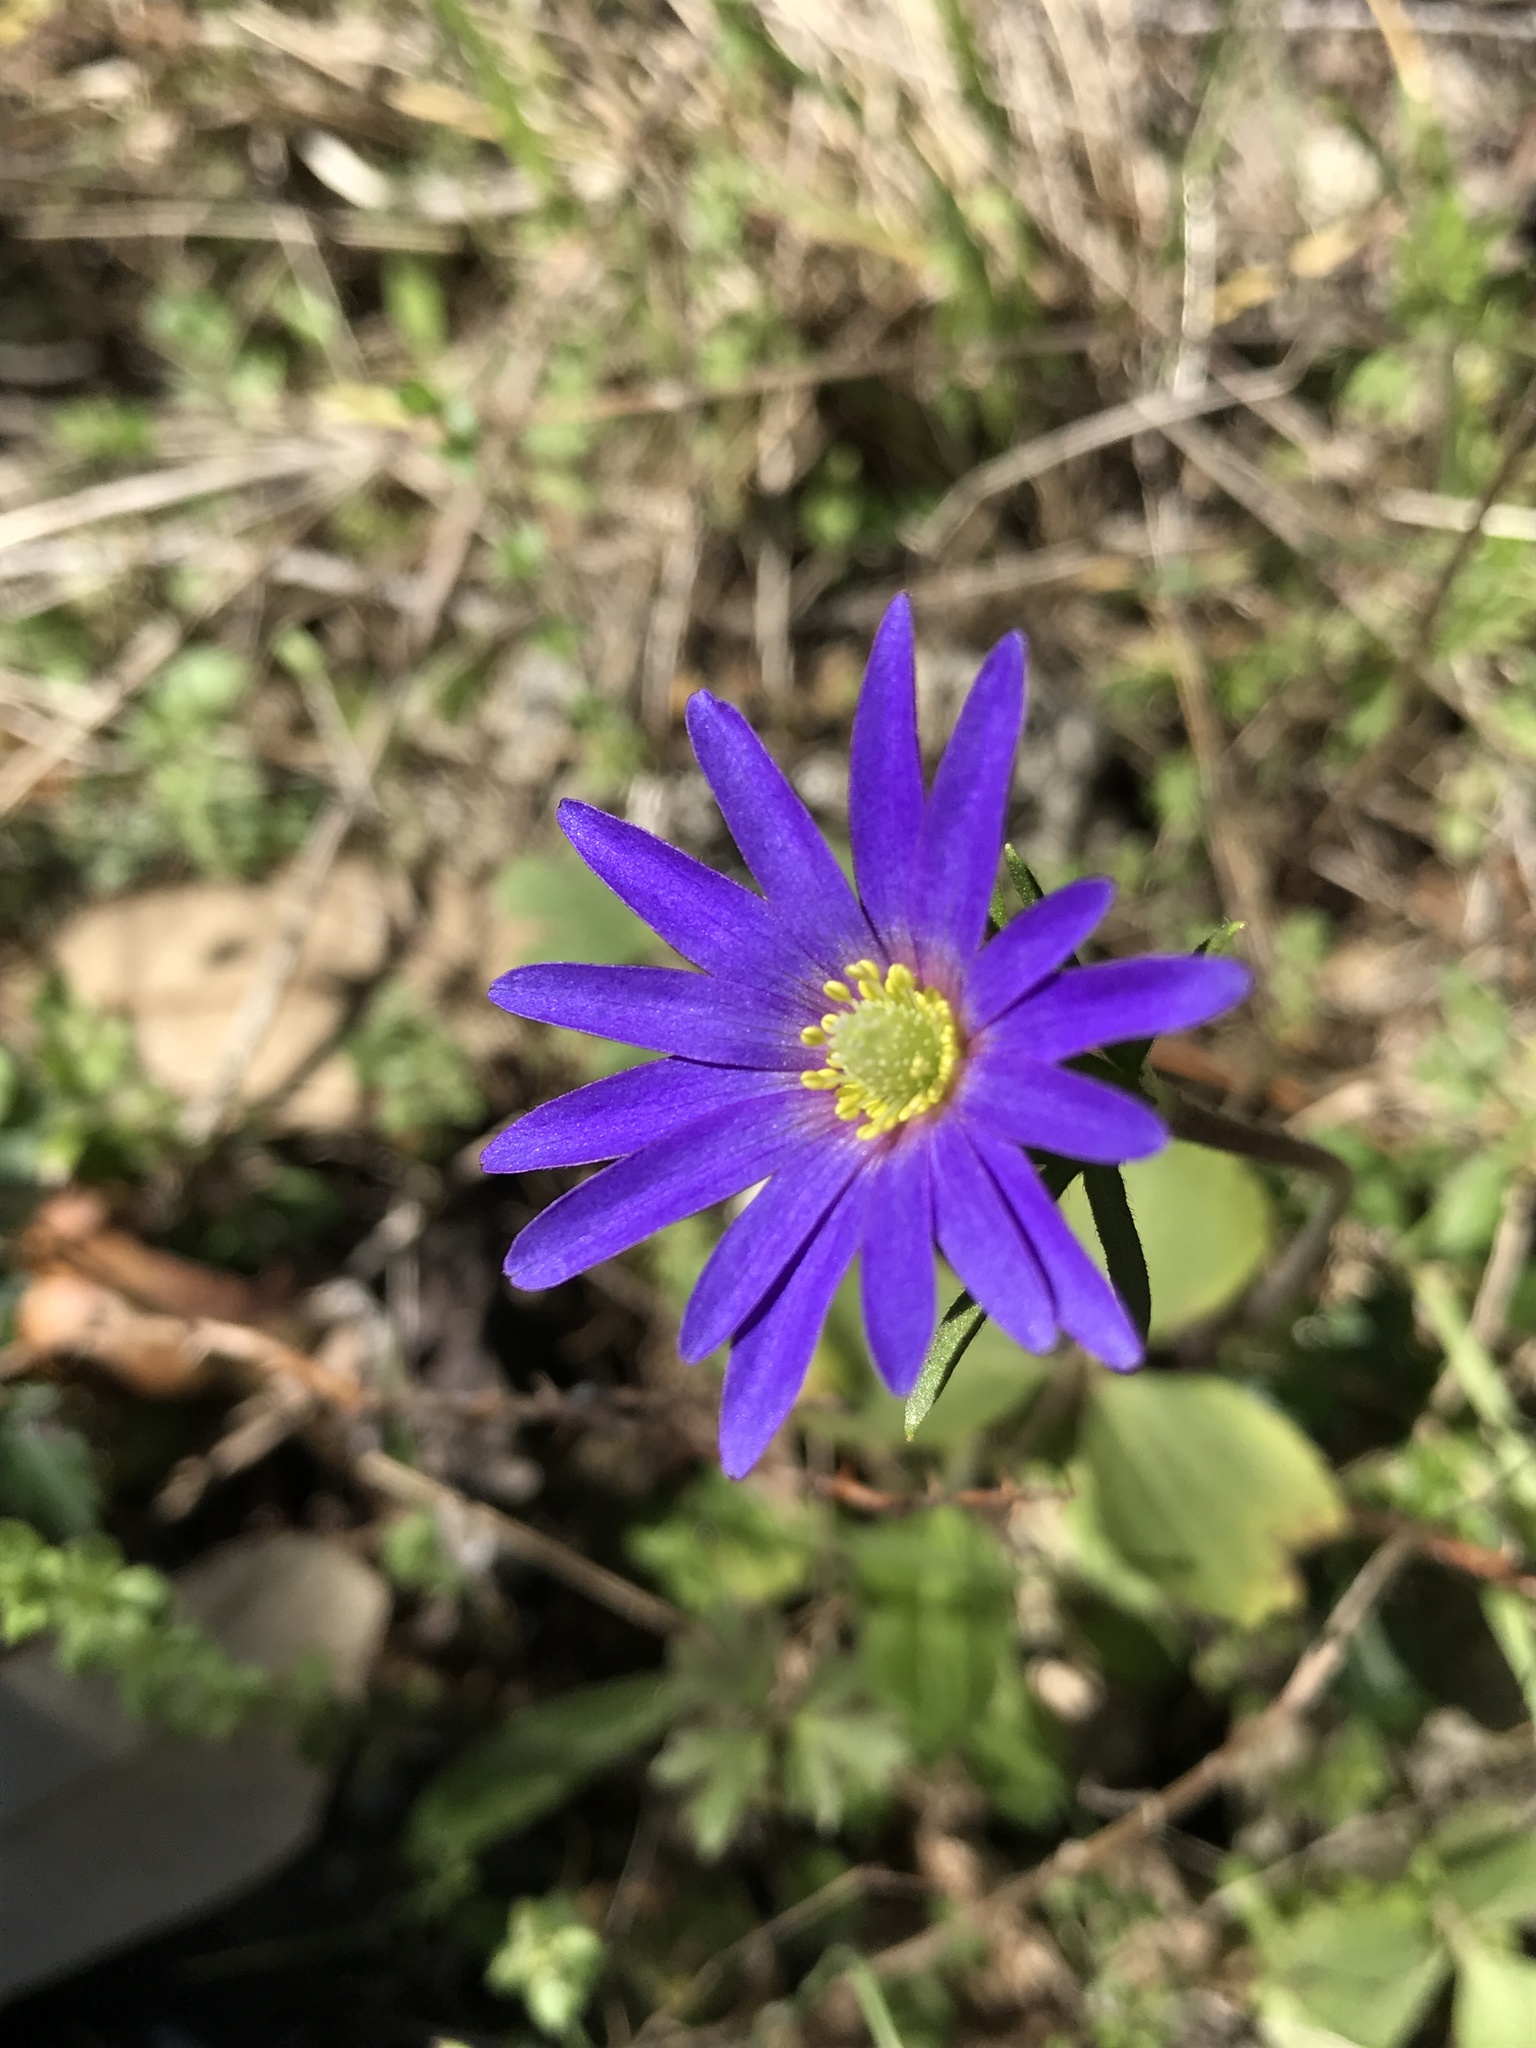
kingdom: Plantae
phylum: Tracheophyta
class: Magnoliopsida
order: Ranunculales
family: Ranunculaceae
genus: Anemone
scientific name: Anemone berlandieri
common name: Ten-petal anemone
